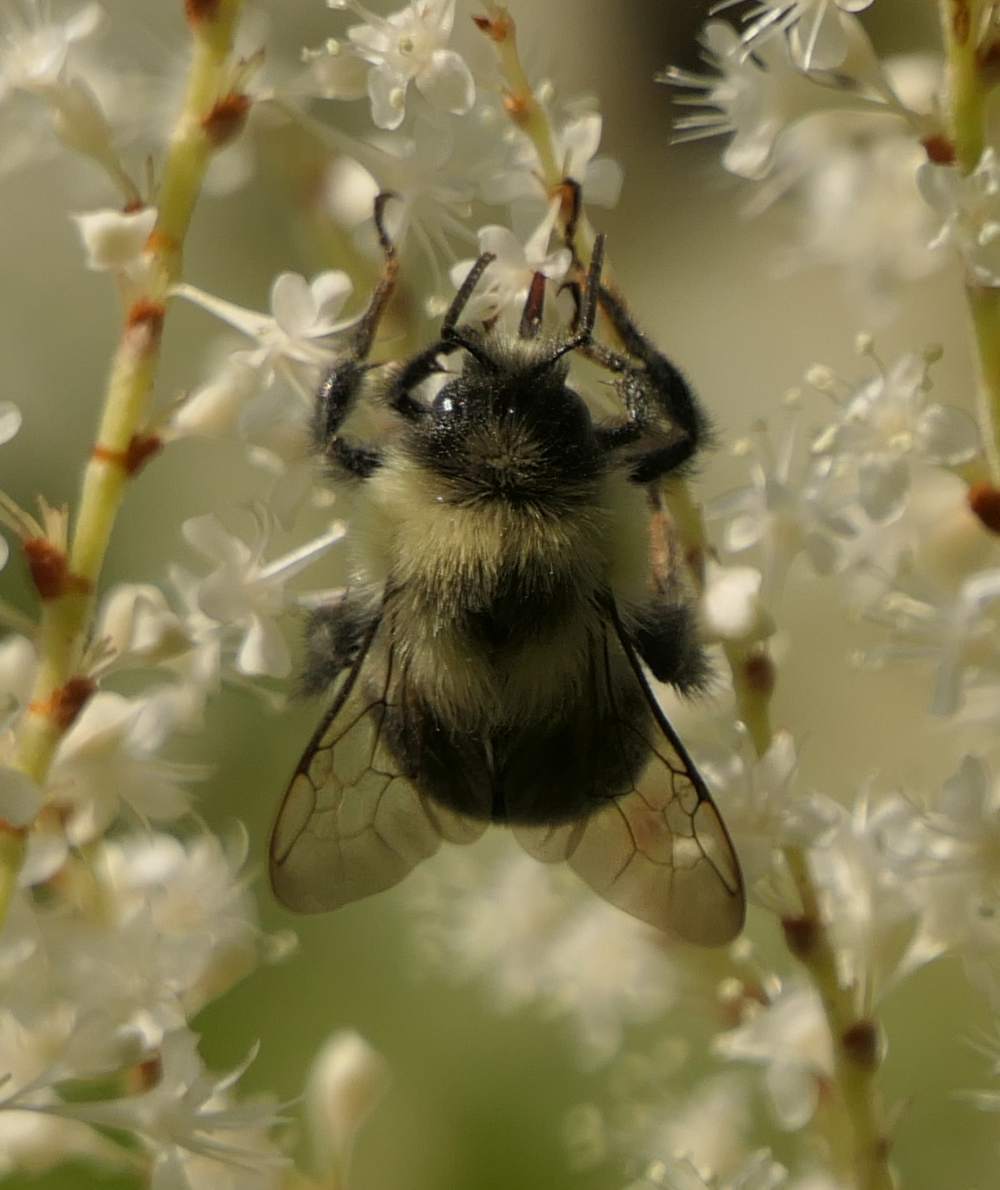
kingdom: Animalia
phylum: Arthropoda
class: Insecta
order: Hymenoptera
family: Apidae
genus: Bombus
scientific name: Bombus impatiens
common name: Common eastern bumble bee
